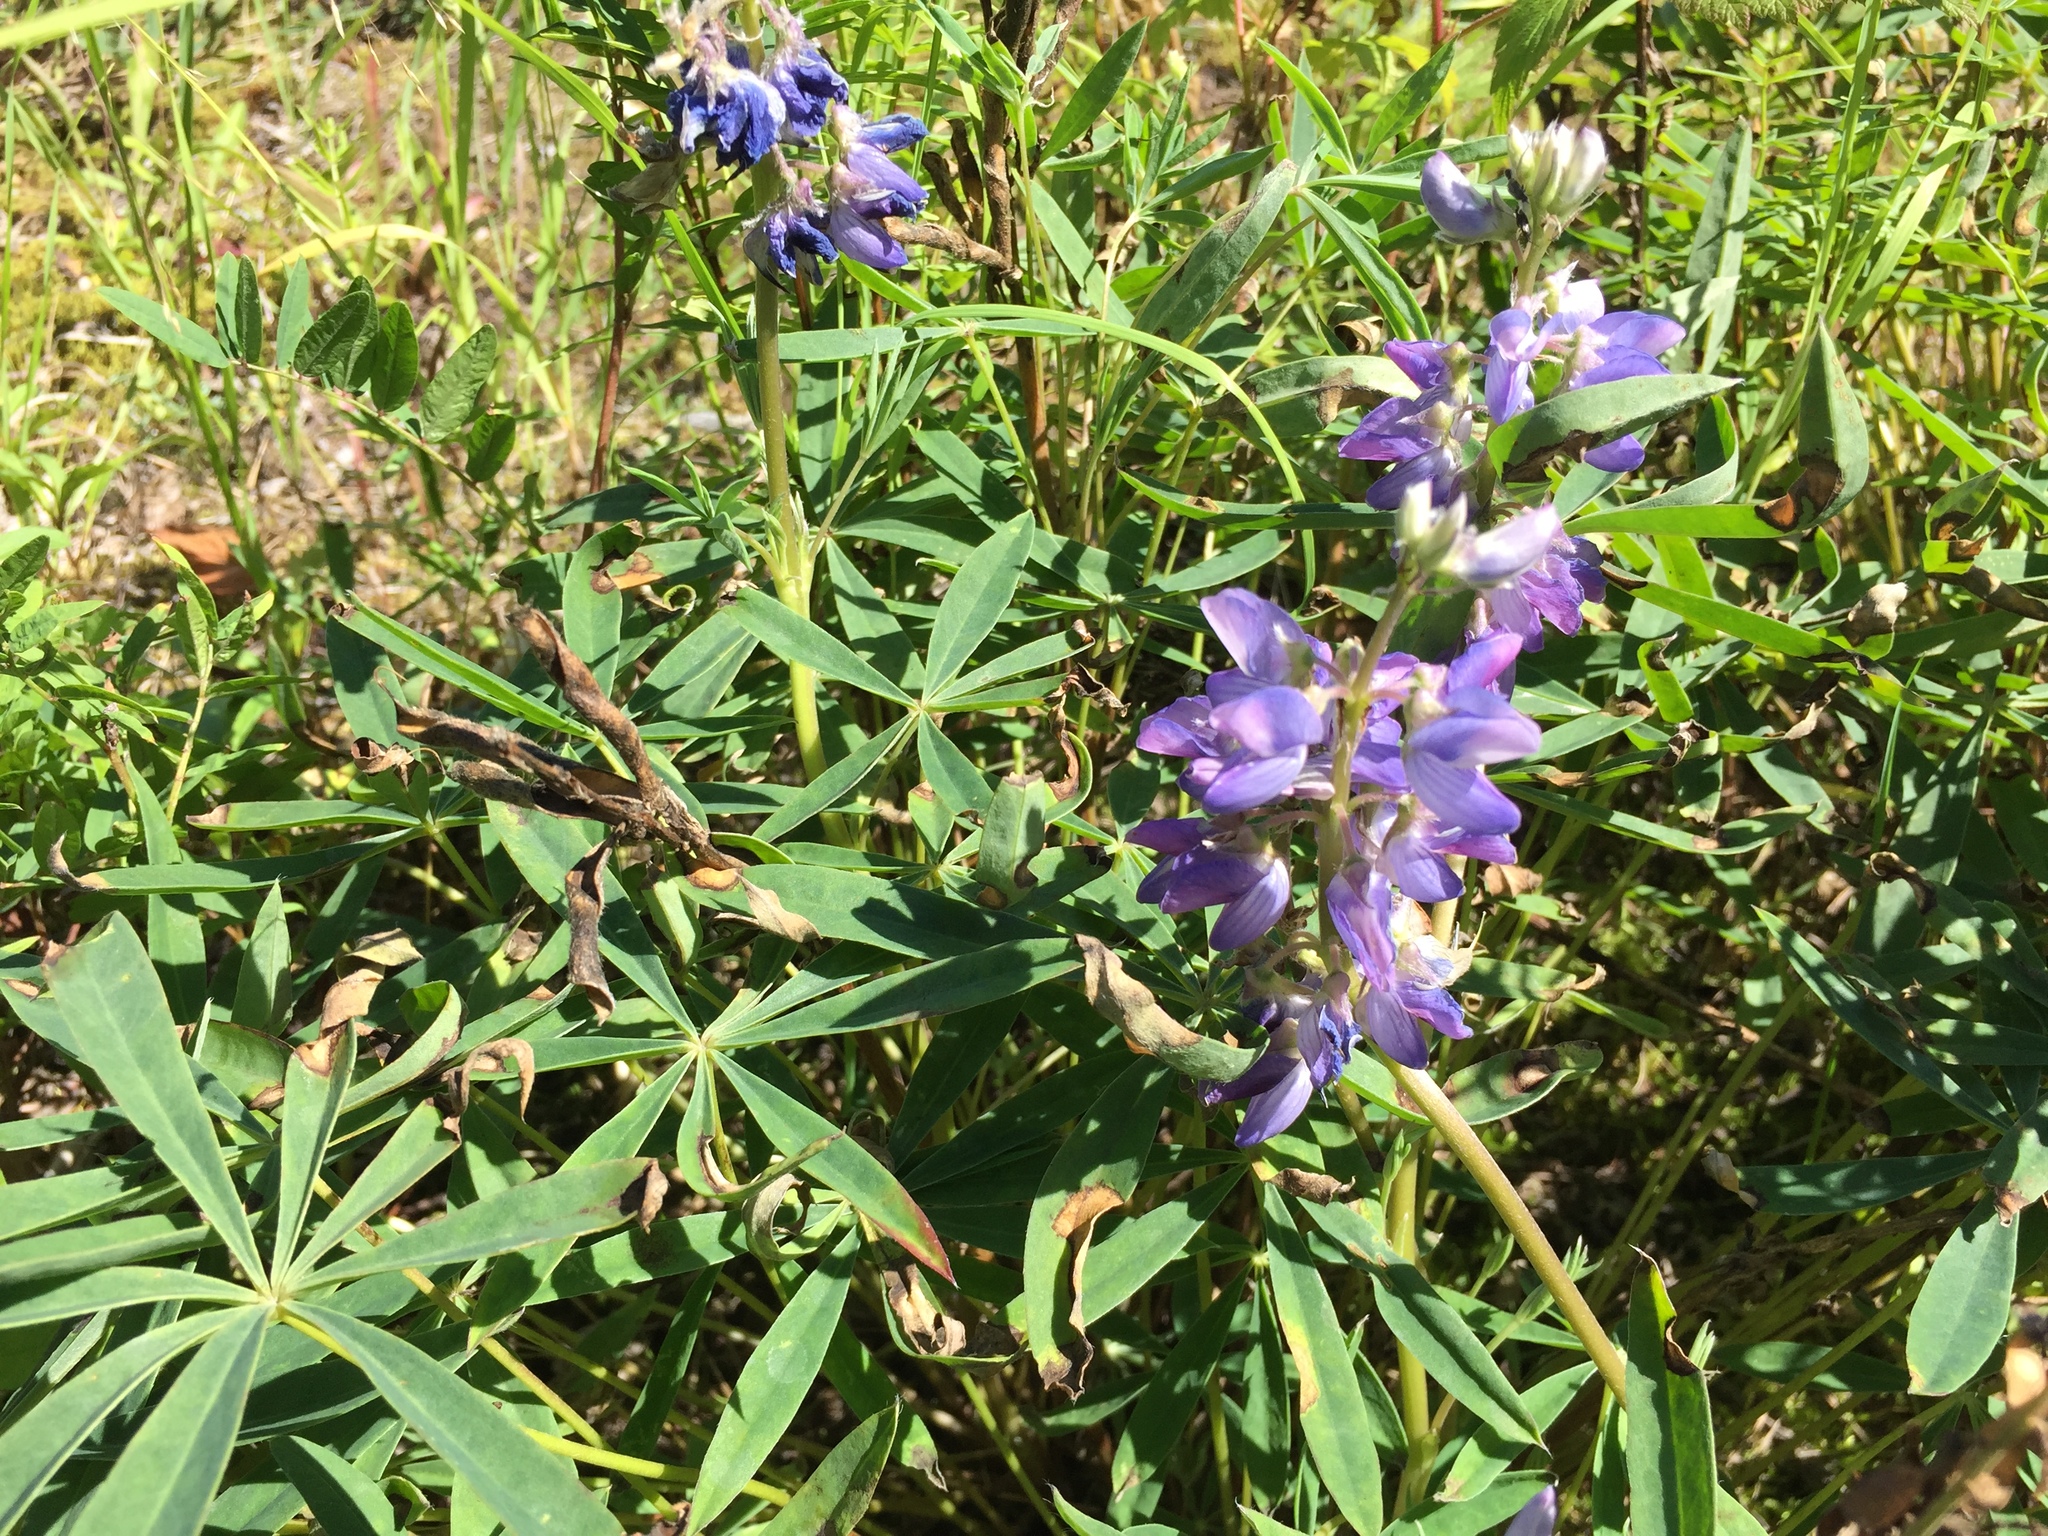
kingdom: Plantae
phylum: Tracheophyta
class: Magnoliopsida
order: Fabales
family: Fabaceae
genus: Lupinus
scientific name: Lupinus arcticus
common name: Arctic lupine
